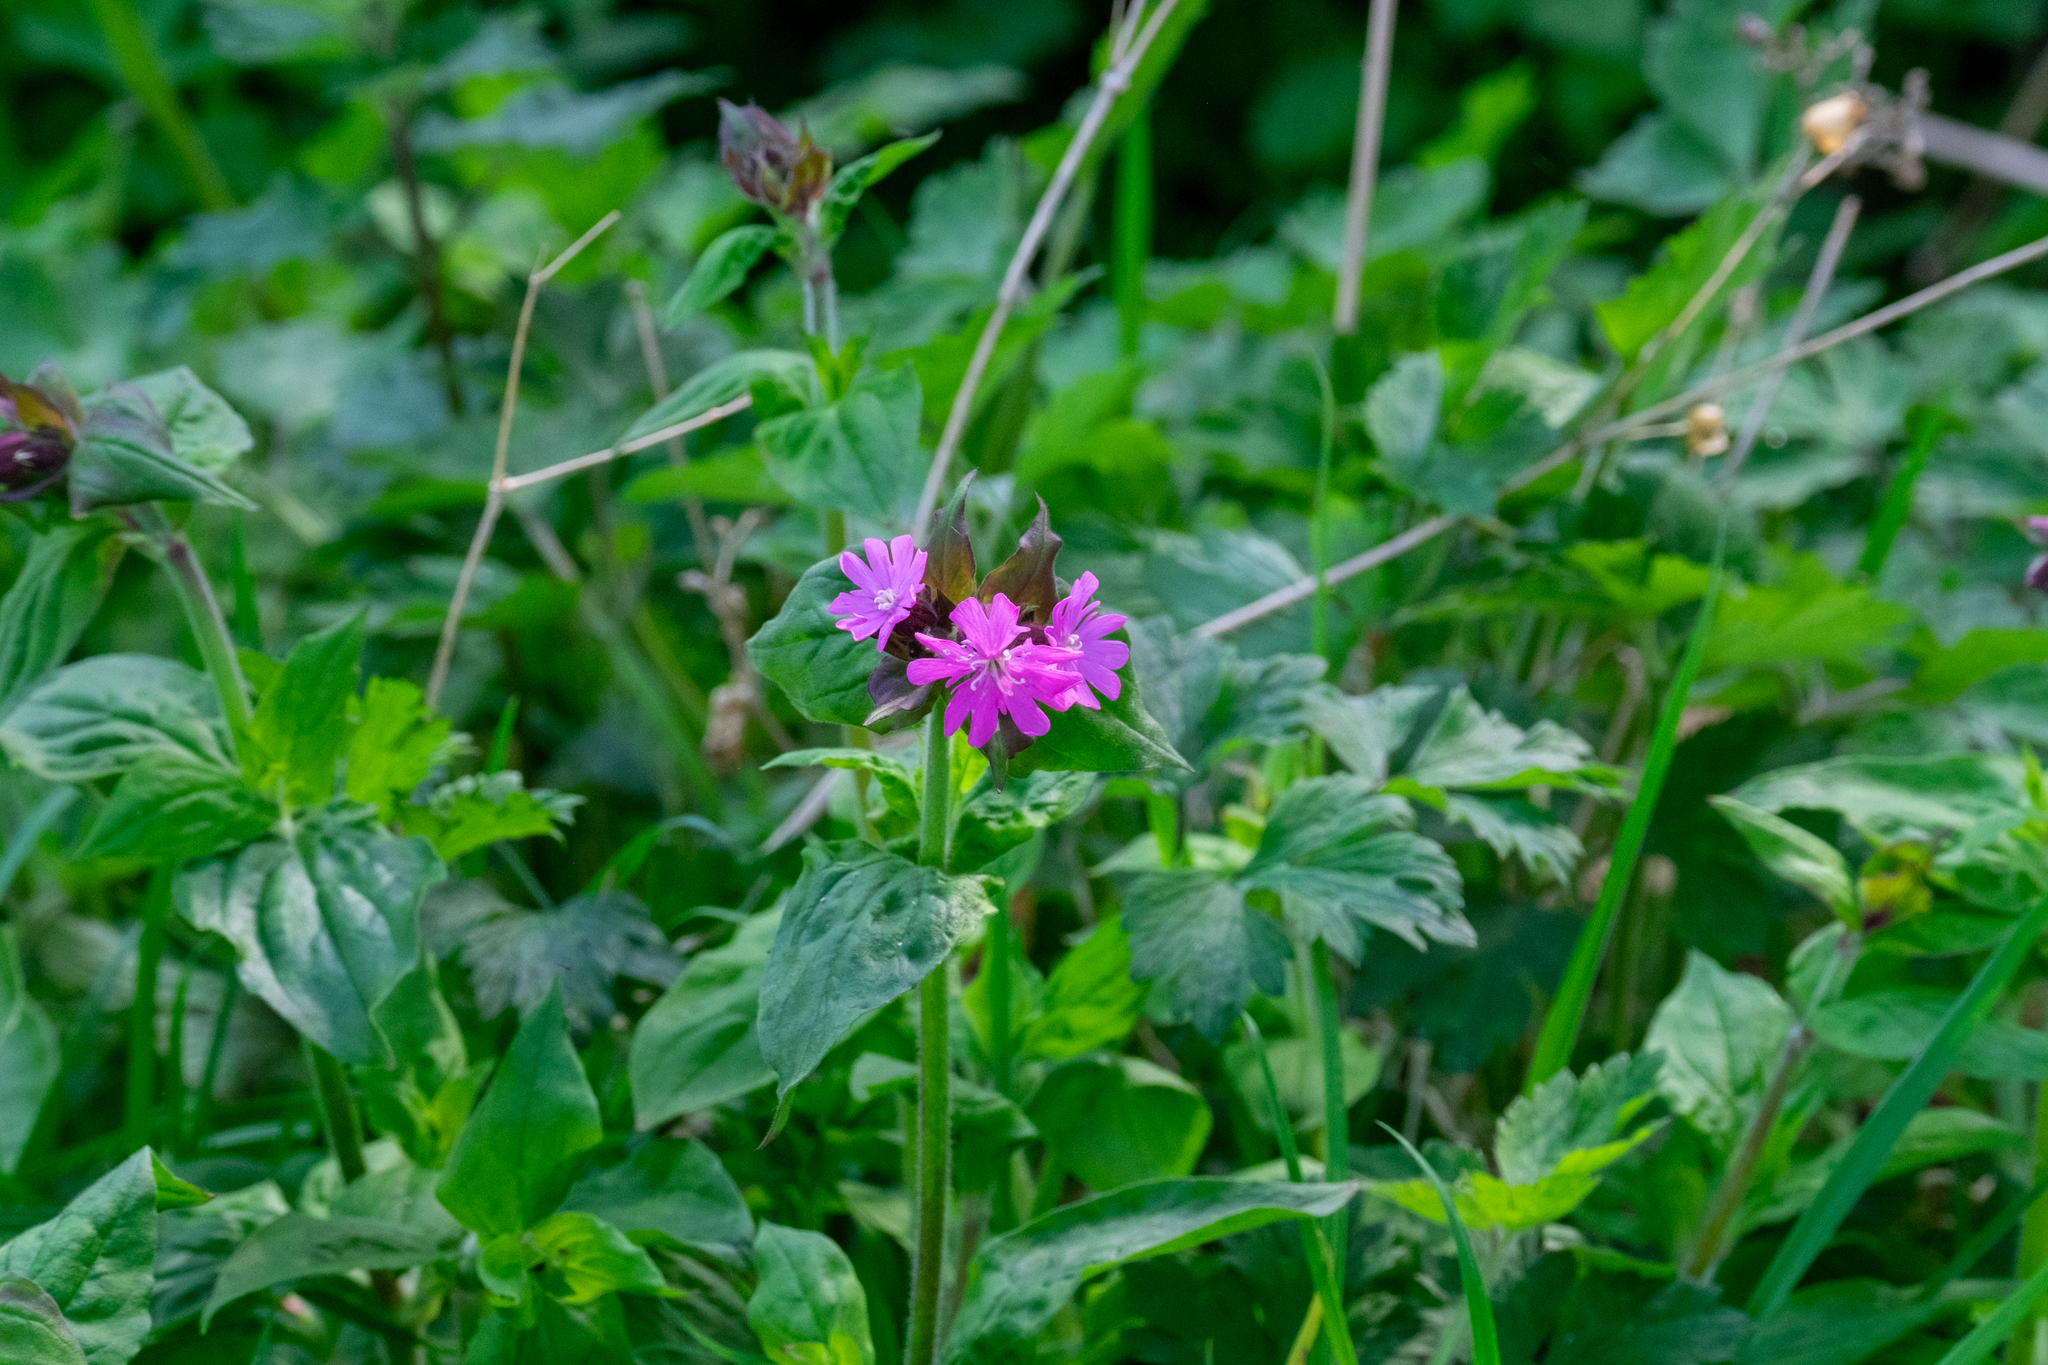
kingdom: Plantae
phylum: Tracheophyta
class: Magnoliopsida
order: Caryophyllales
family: Caryophyllaceae
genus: Silene
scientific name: Silene dioica
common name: Red campion
